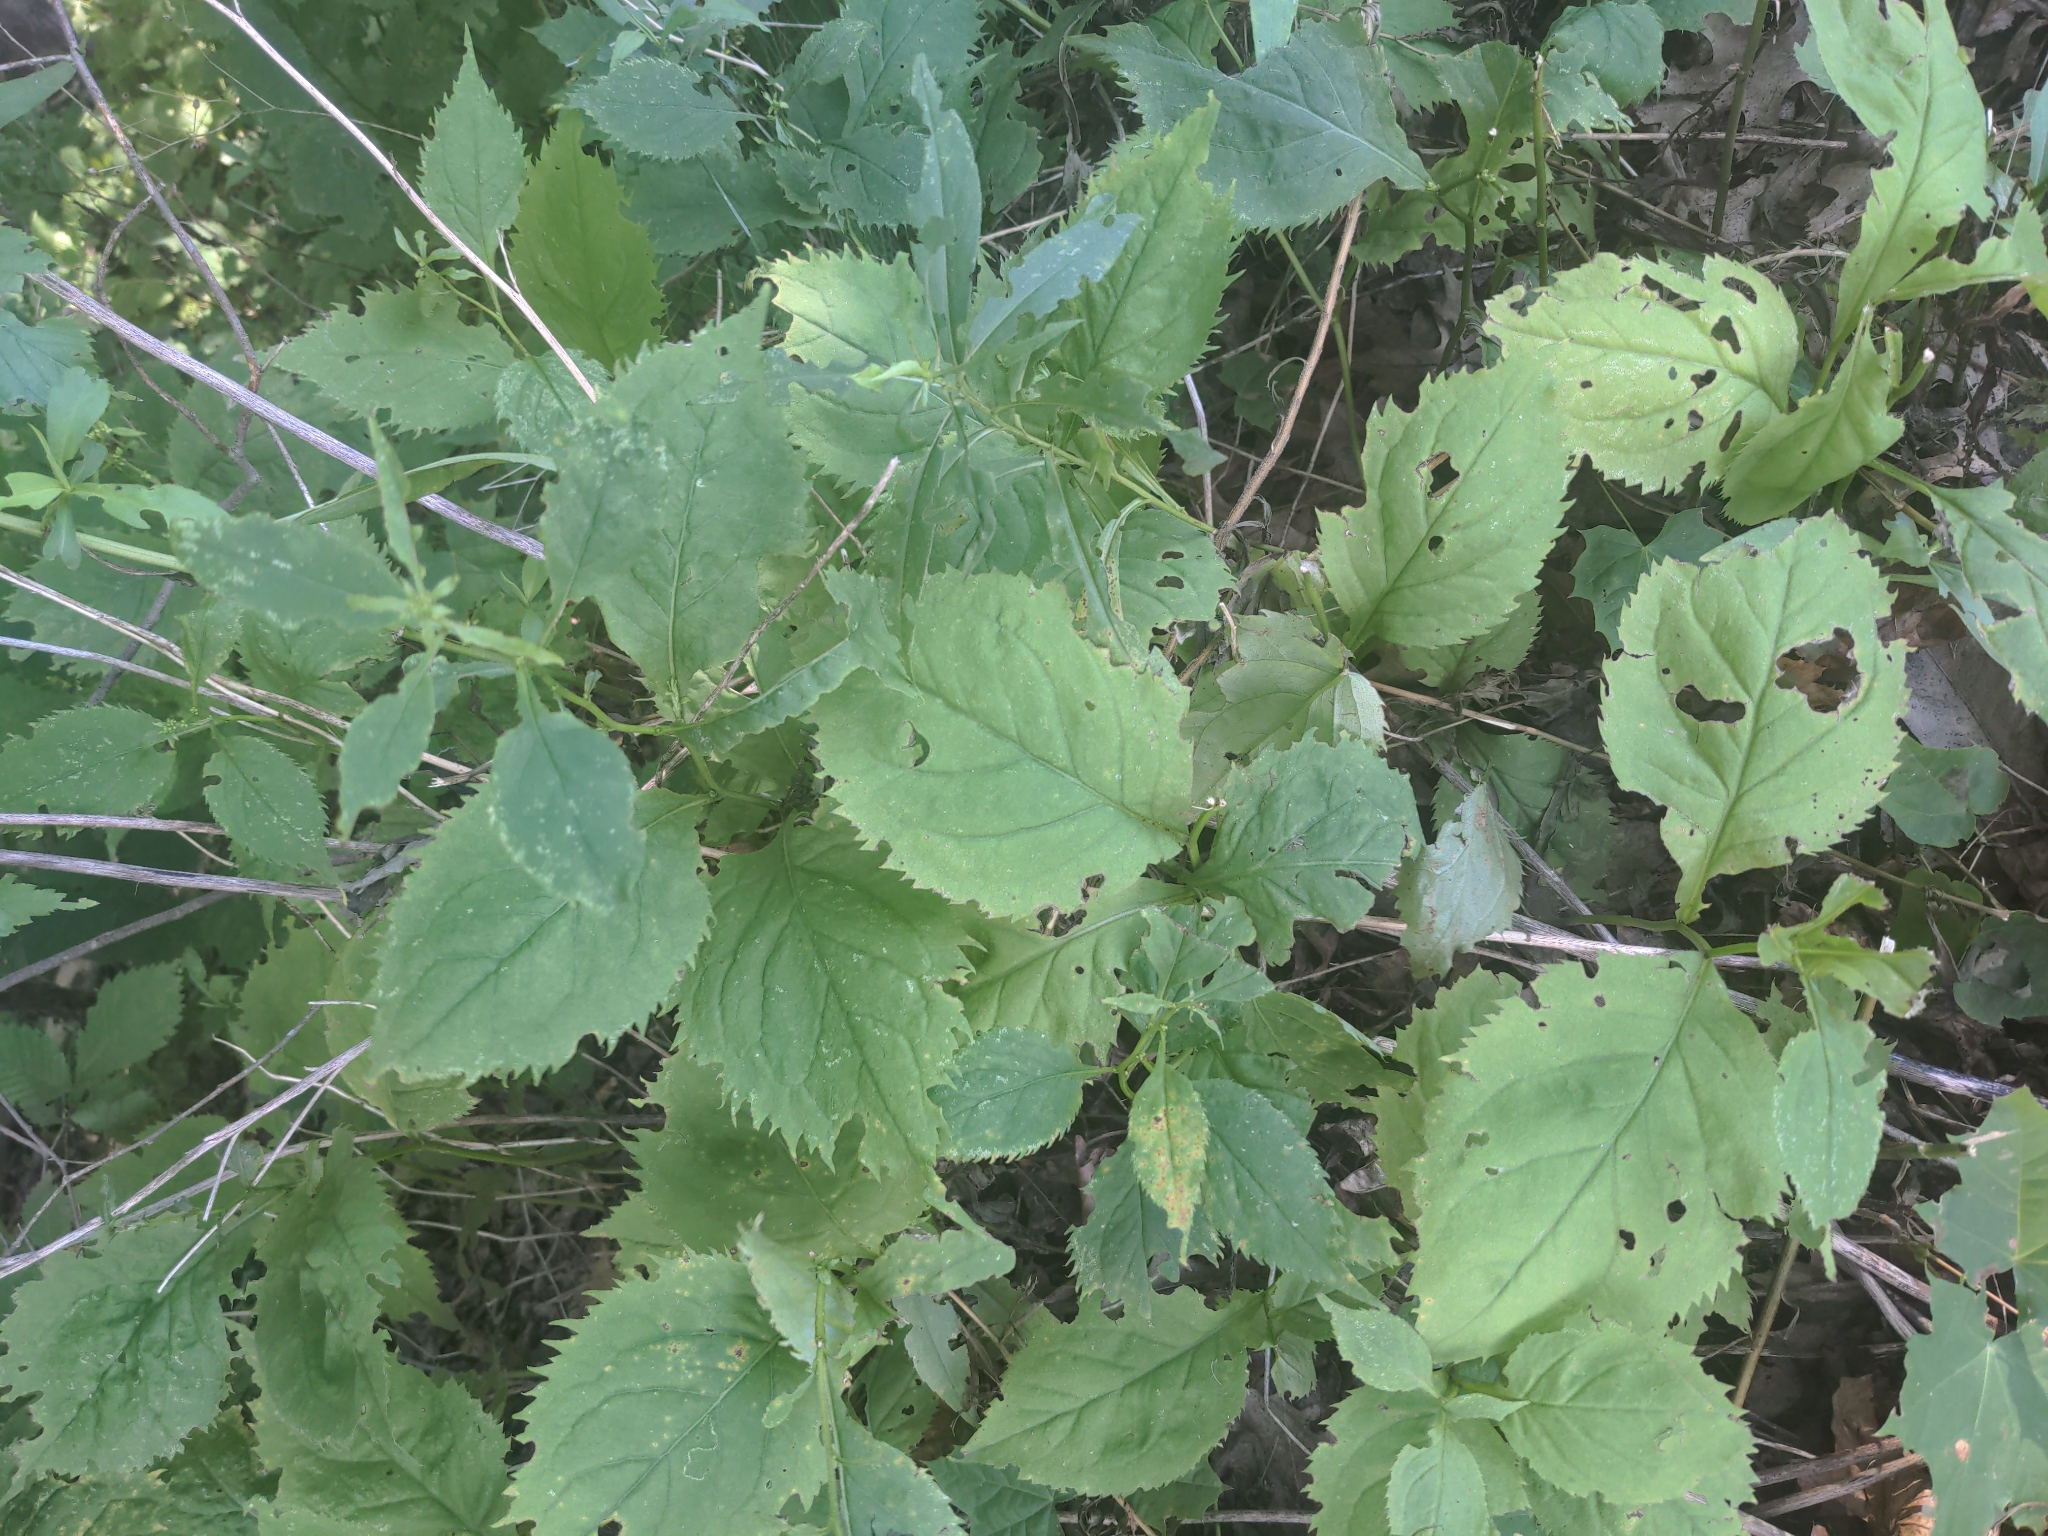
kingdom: Plantae
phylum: Tracheophyta
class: Magnoliopsida
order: Asterales
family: Asteraceae
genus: Solidago
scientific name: Solidago flexicaulis
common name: Zig-zag goldenrod
